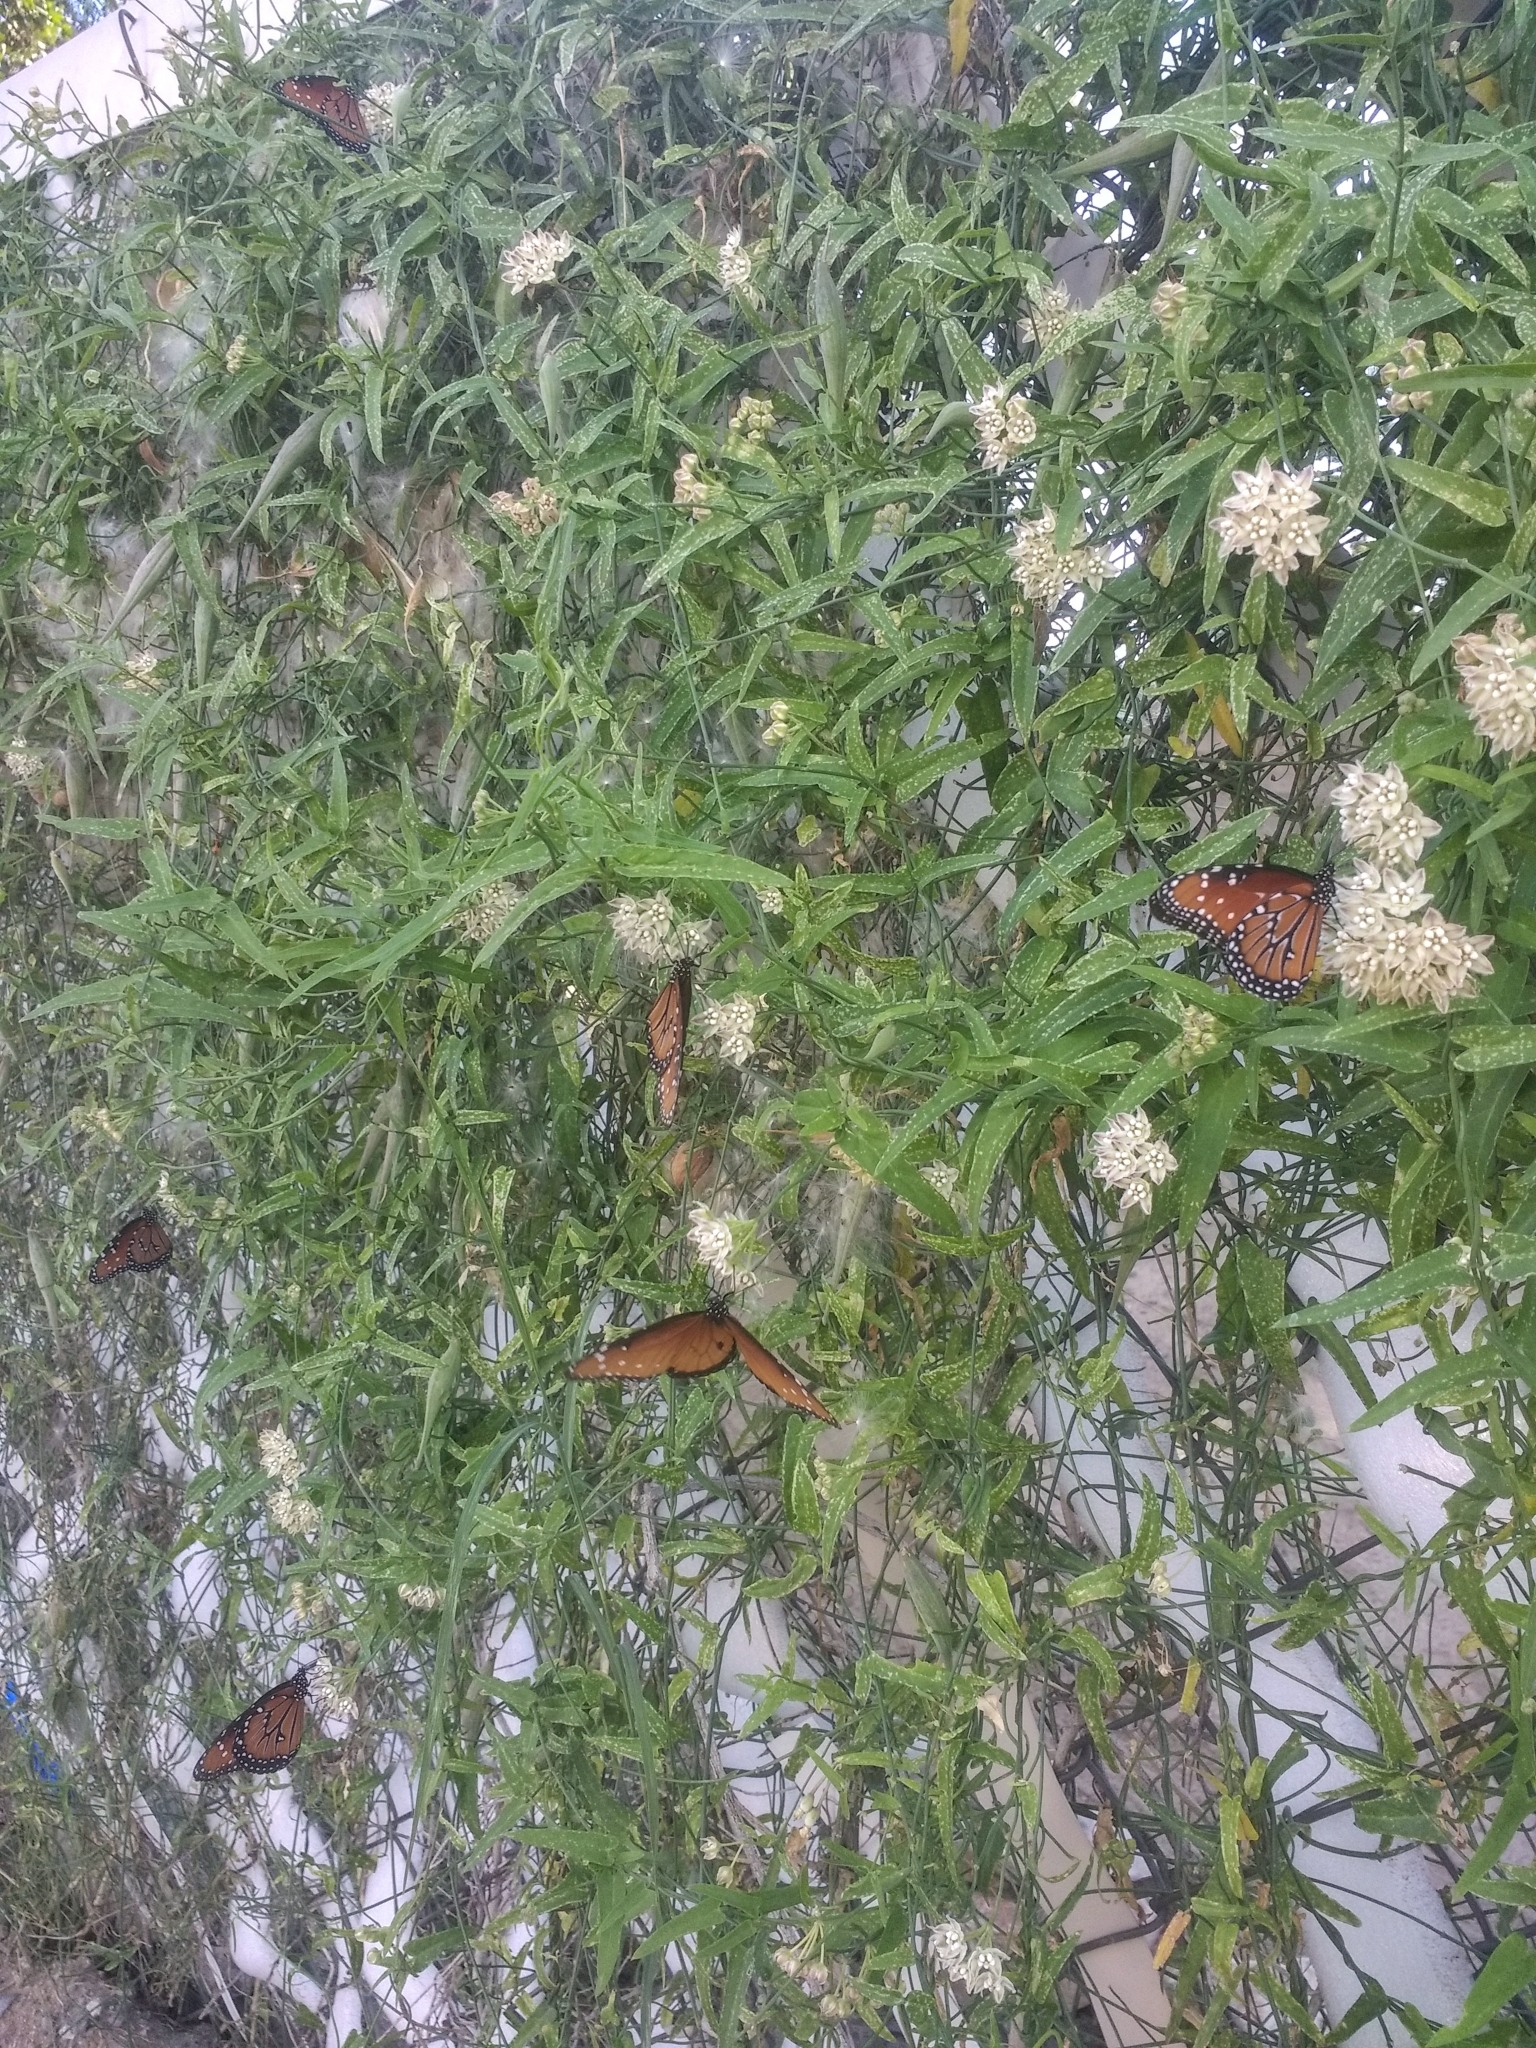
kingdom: Animalia
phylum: Arthropoda
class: Insecta
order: Lepidoptera
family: Nymphalidae
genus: Danaus
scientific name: Danaus gilippus
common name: Queen
